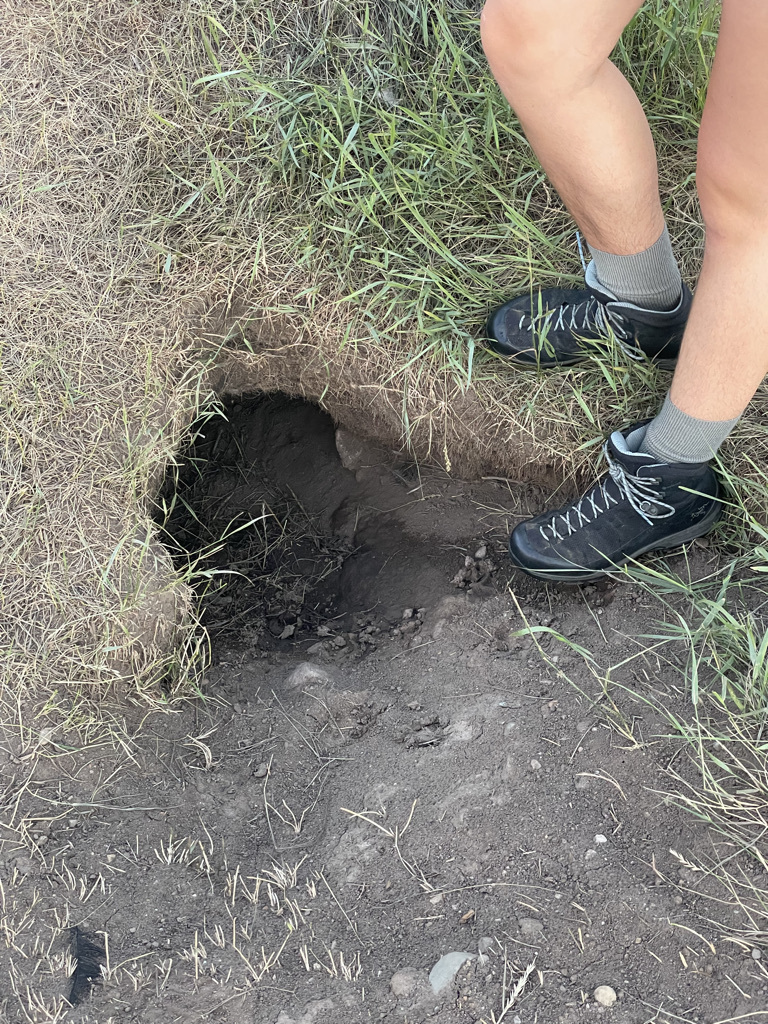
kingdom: Animalia
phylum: Chordata
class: Mammalia
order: Carnivora
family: Canidae
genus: Canis
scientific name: Canis latrans
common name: Coyote
